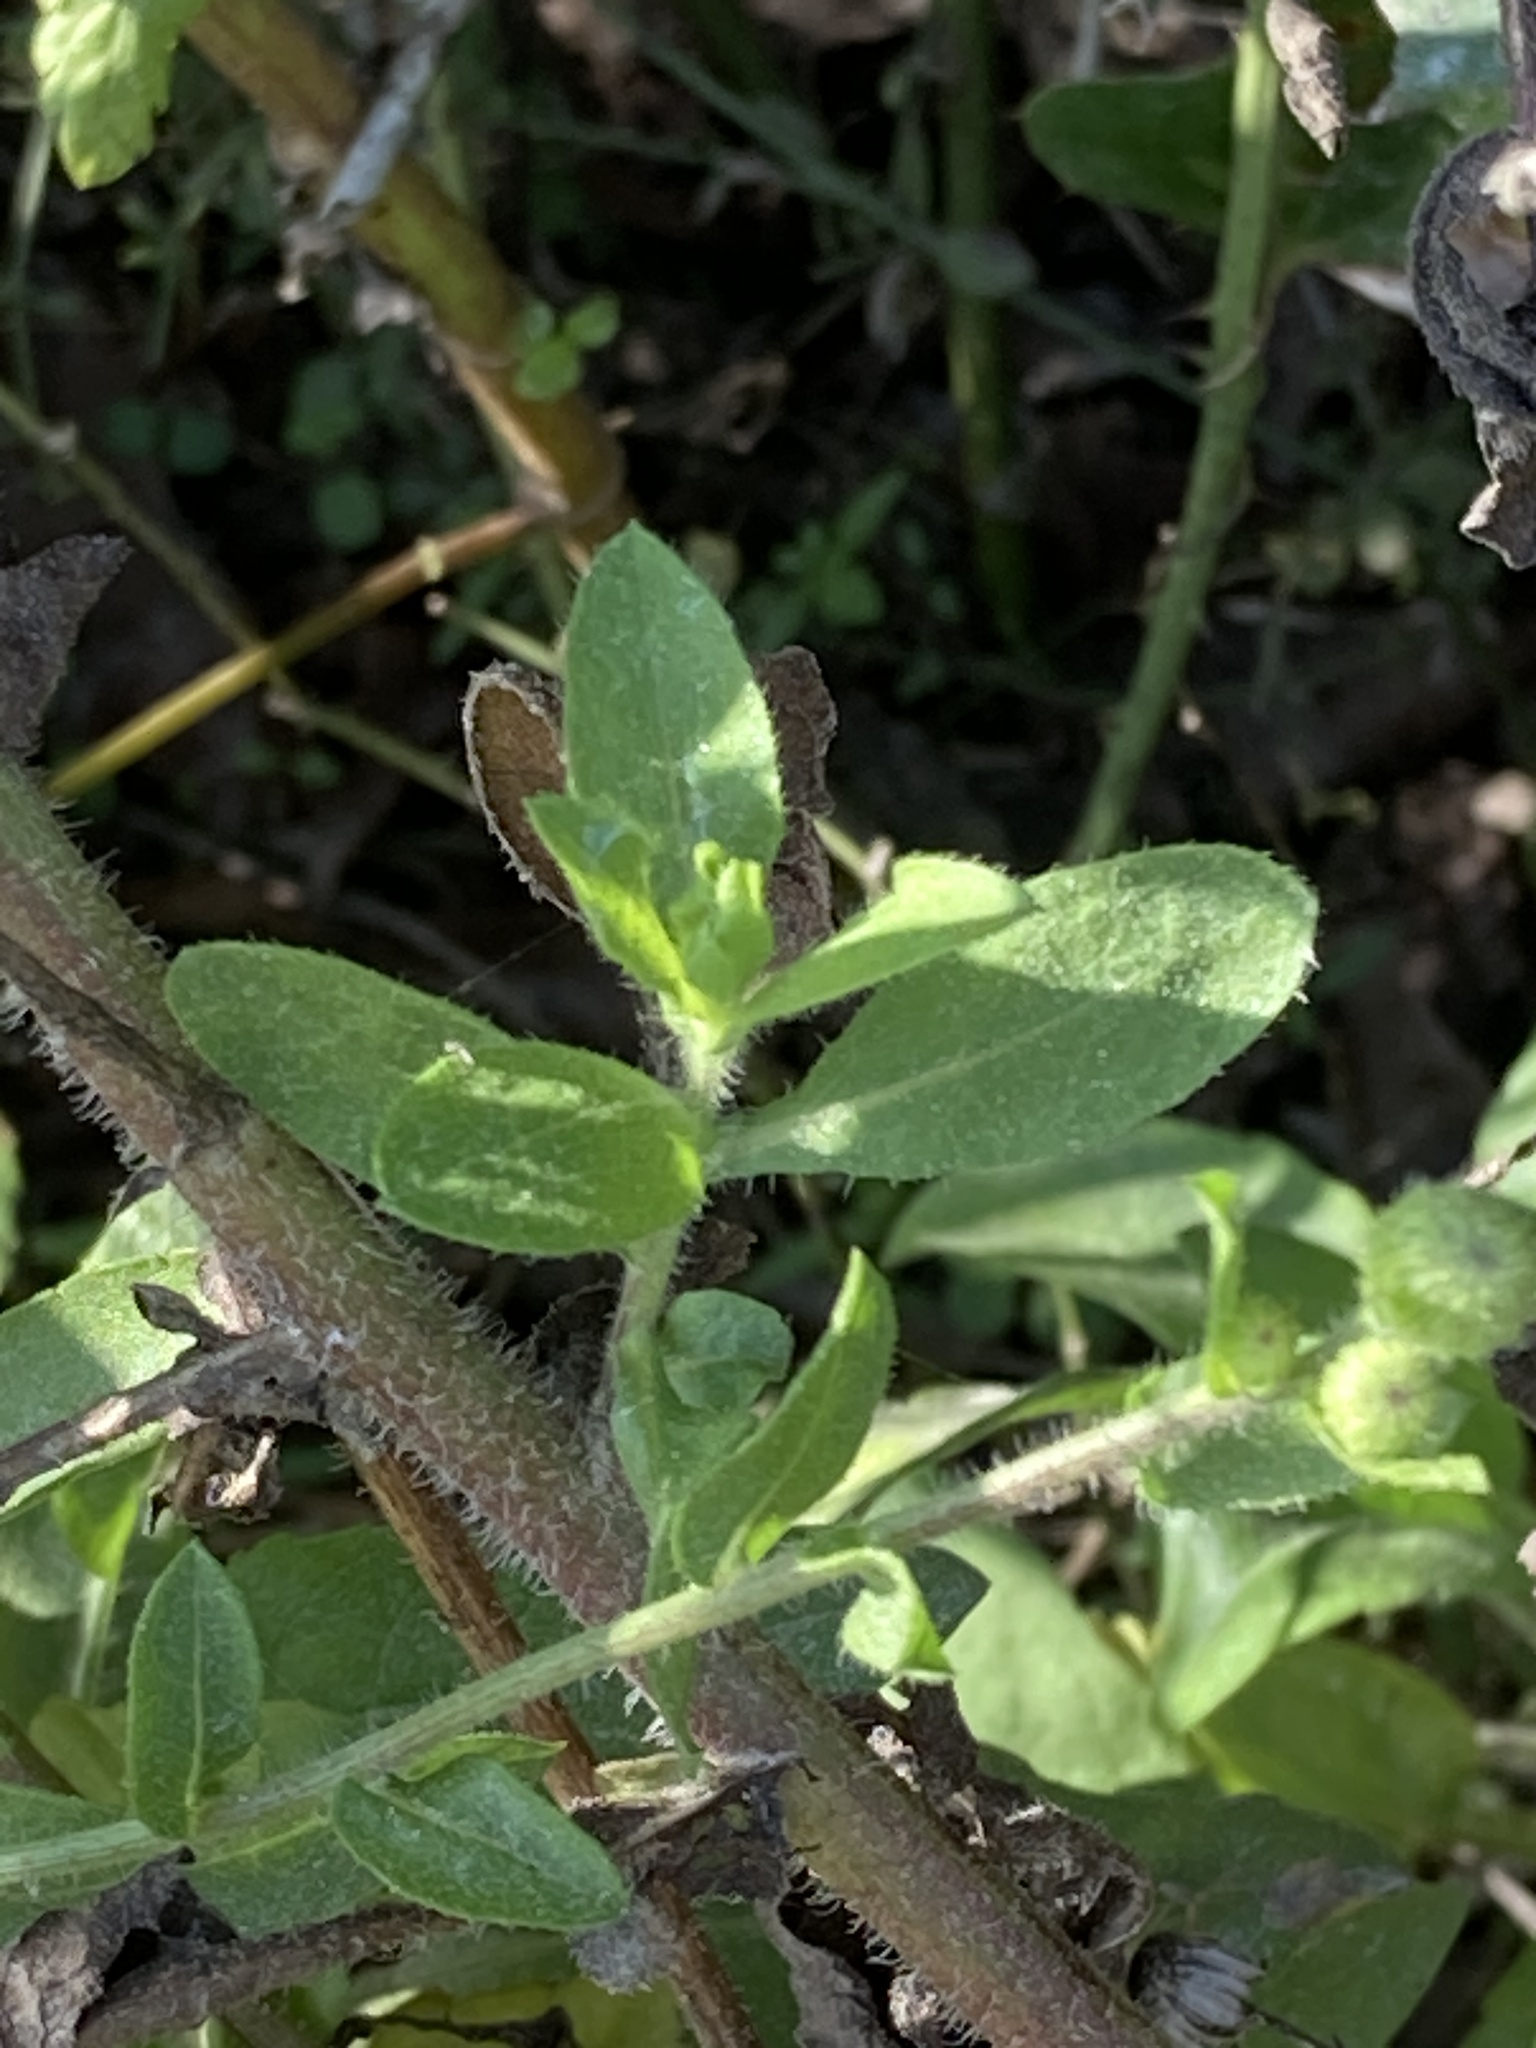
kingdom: Plantae
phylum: Tracheophyta
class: Magnoliopsida
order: Asterales
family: Asteraceae
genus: Heterotheca
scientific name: Heterotheca subaxillaris
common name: Camphorweed
